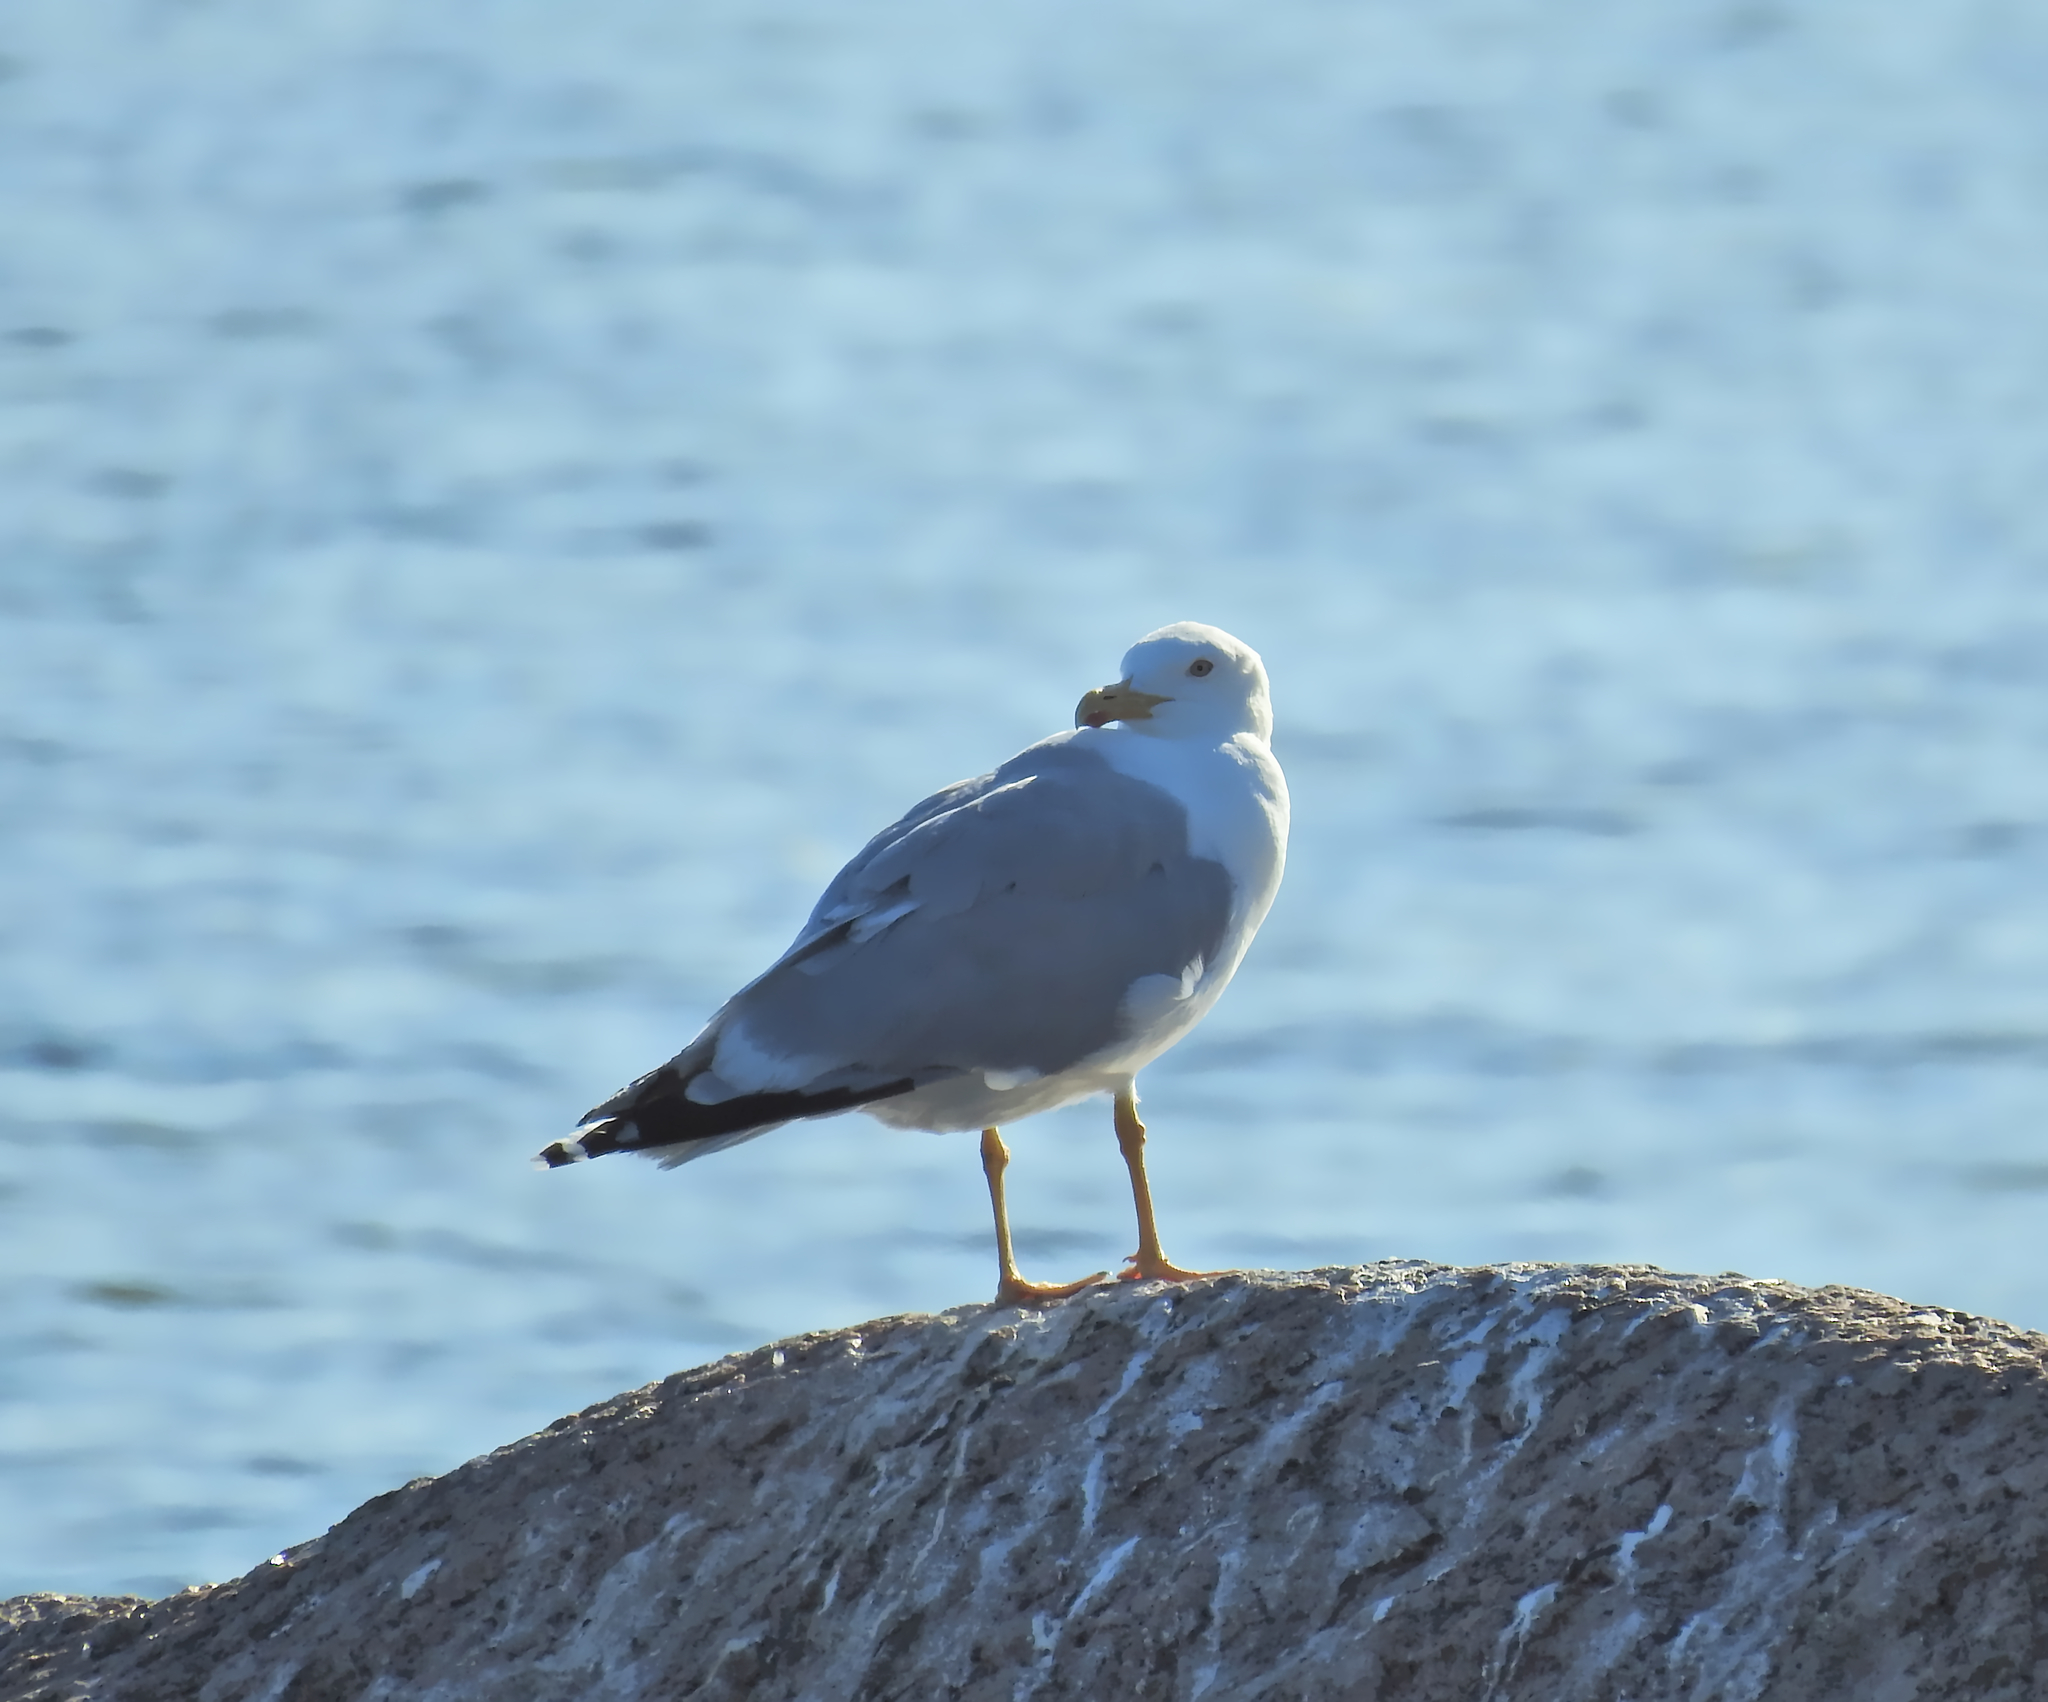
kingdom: Animalia
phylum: Chordata
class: Aves
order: Charadriiformes
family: Laridae
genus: Larus
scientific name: Larus argentatus
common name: Herring gull
